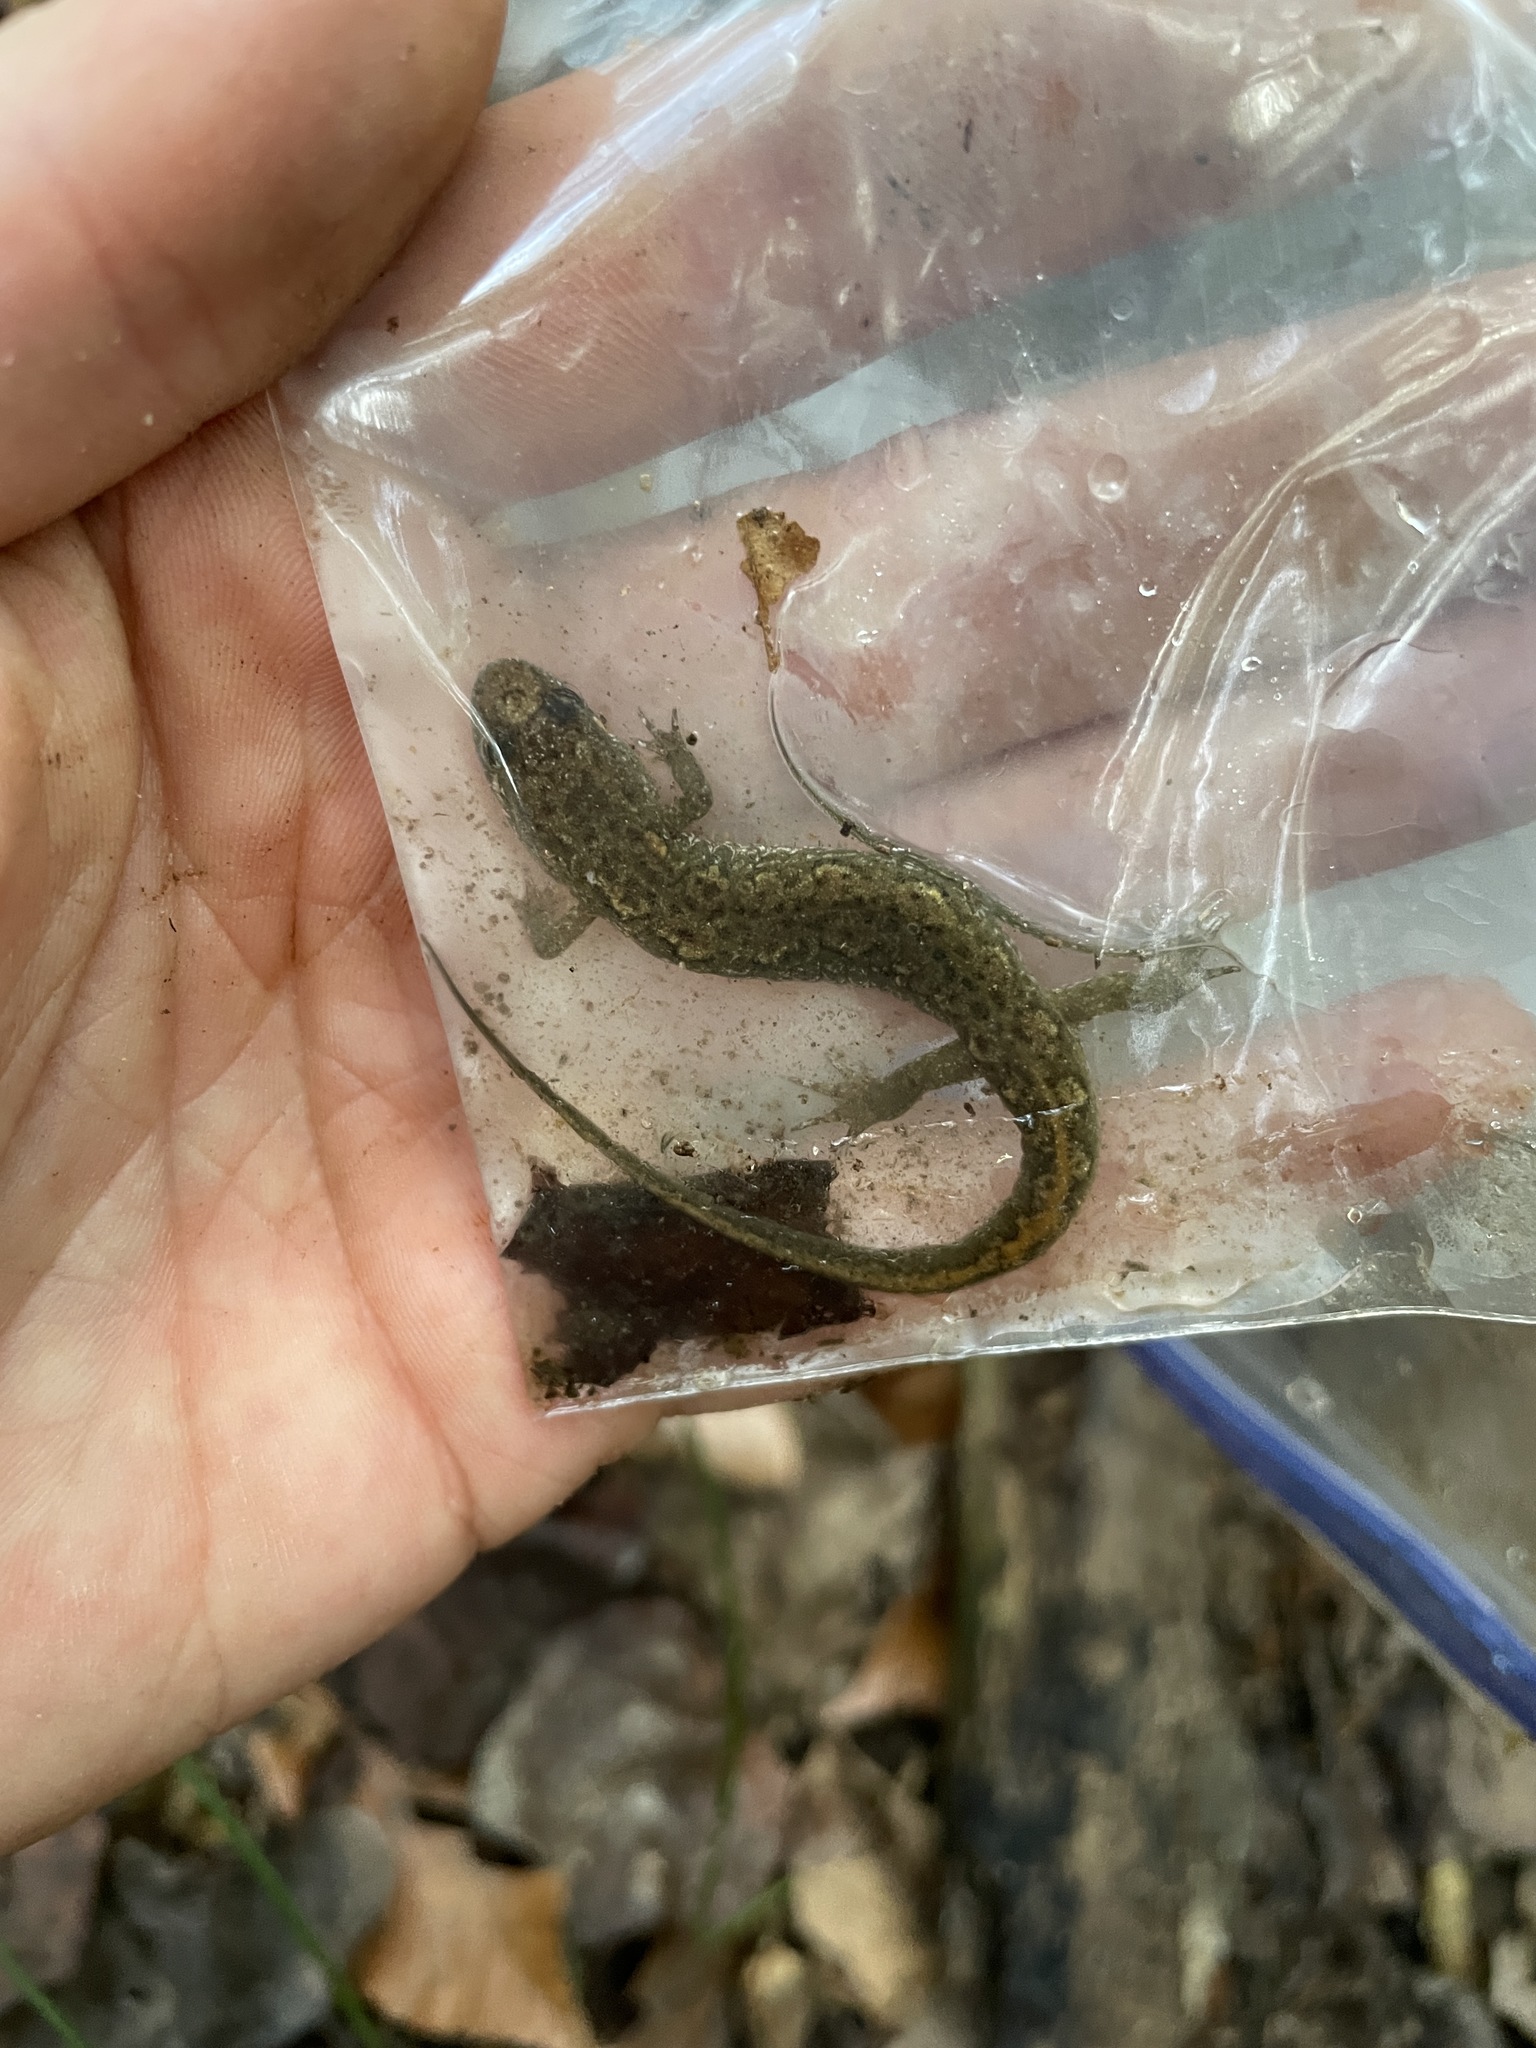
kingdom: Animalia
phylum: Chordata
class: Amphibia
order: Caudata
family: Plethodontidae
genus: Desmognathus
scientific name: Desmognathus conanti
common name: Spotted dusky salamander
